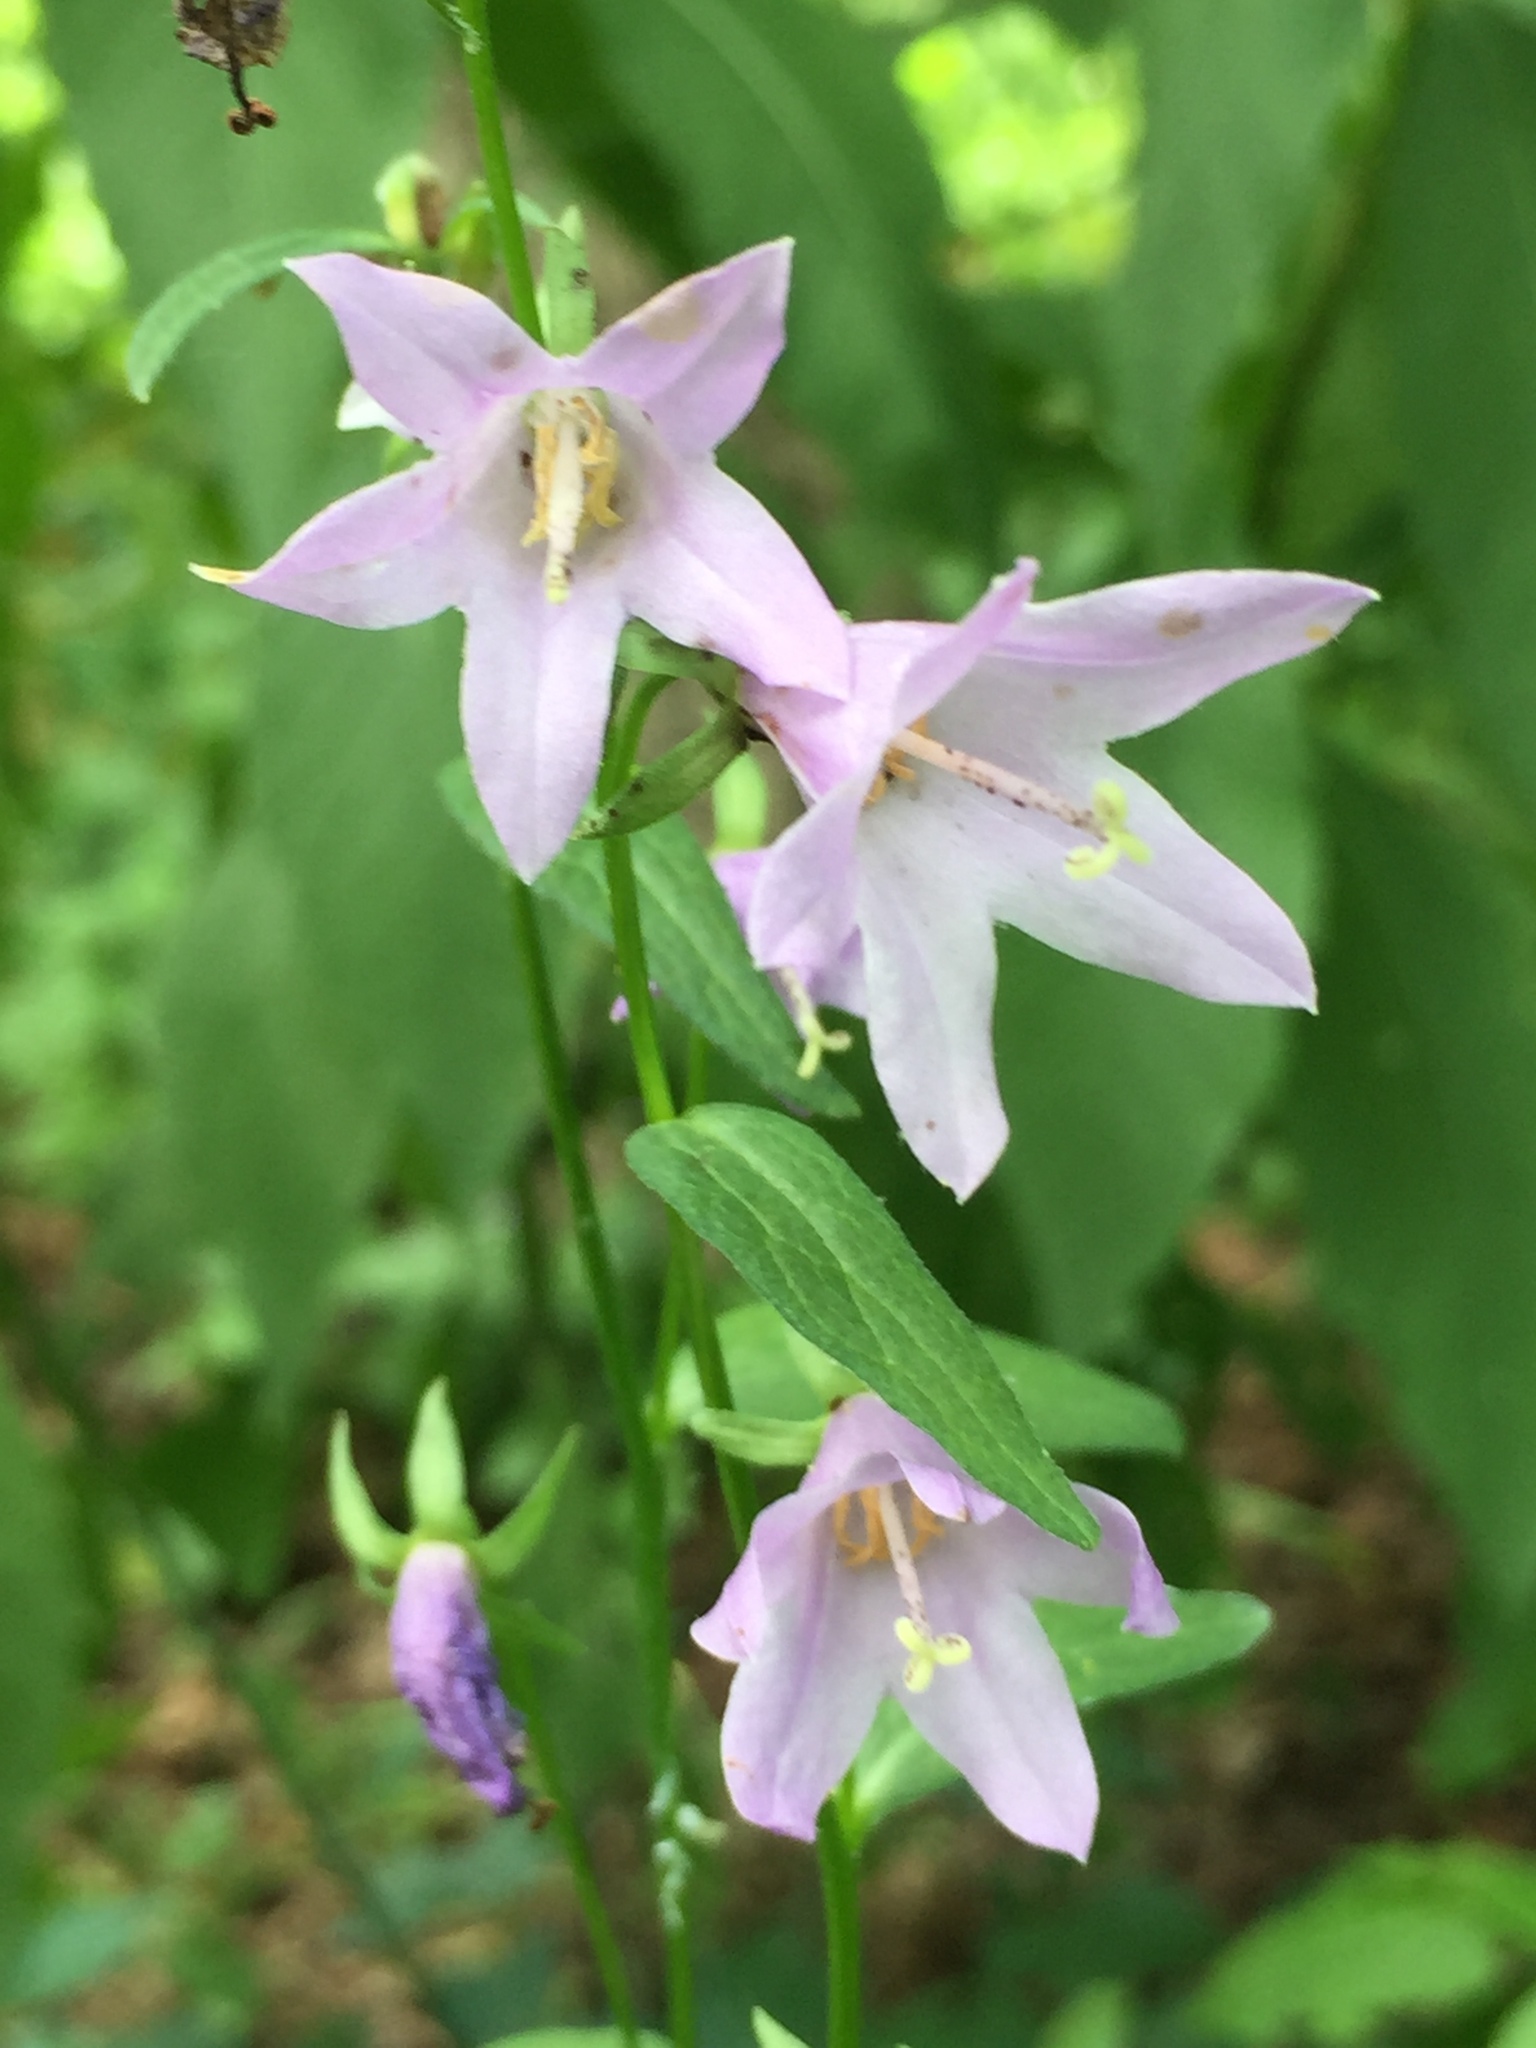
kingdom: Plantae
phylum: Tracheophyta
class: Magnoliopsida
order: Asterales
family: Campanulaceae
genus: Campanula
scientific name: Campanula rapunculoides
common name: Creeping bellflower
